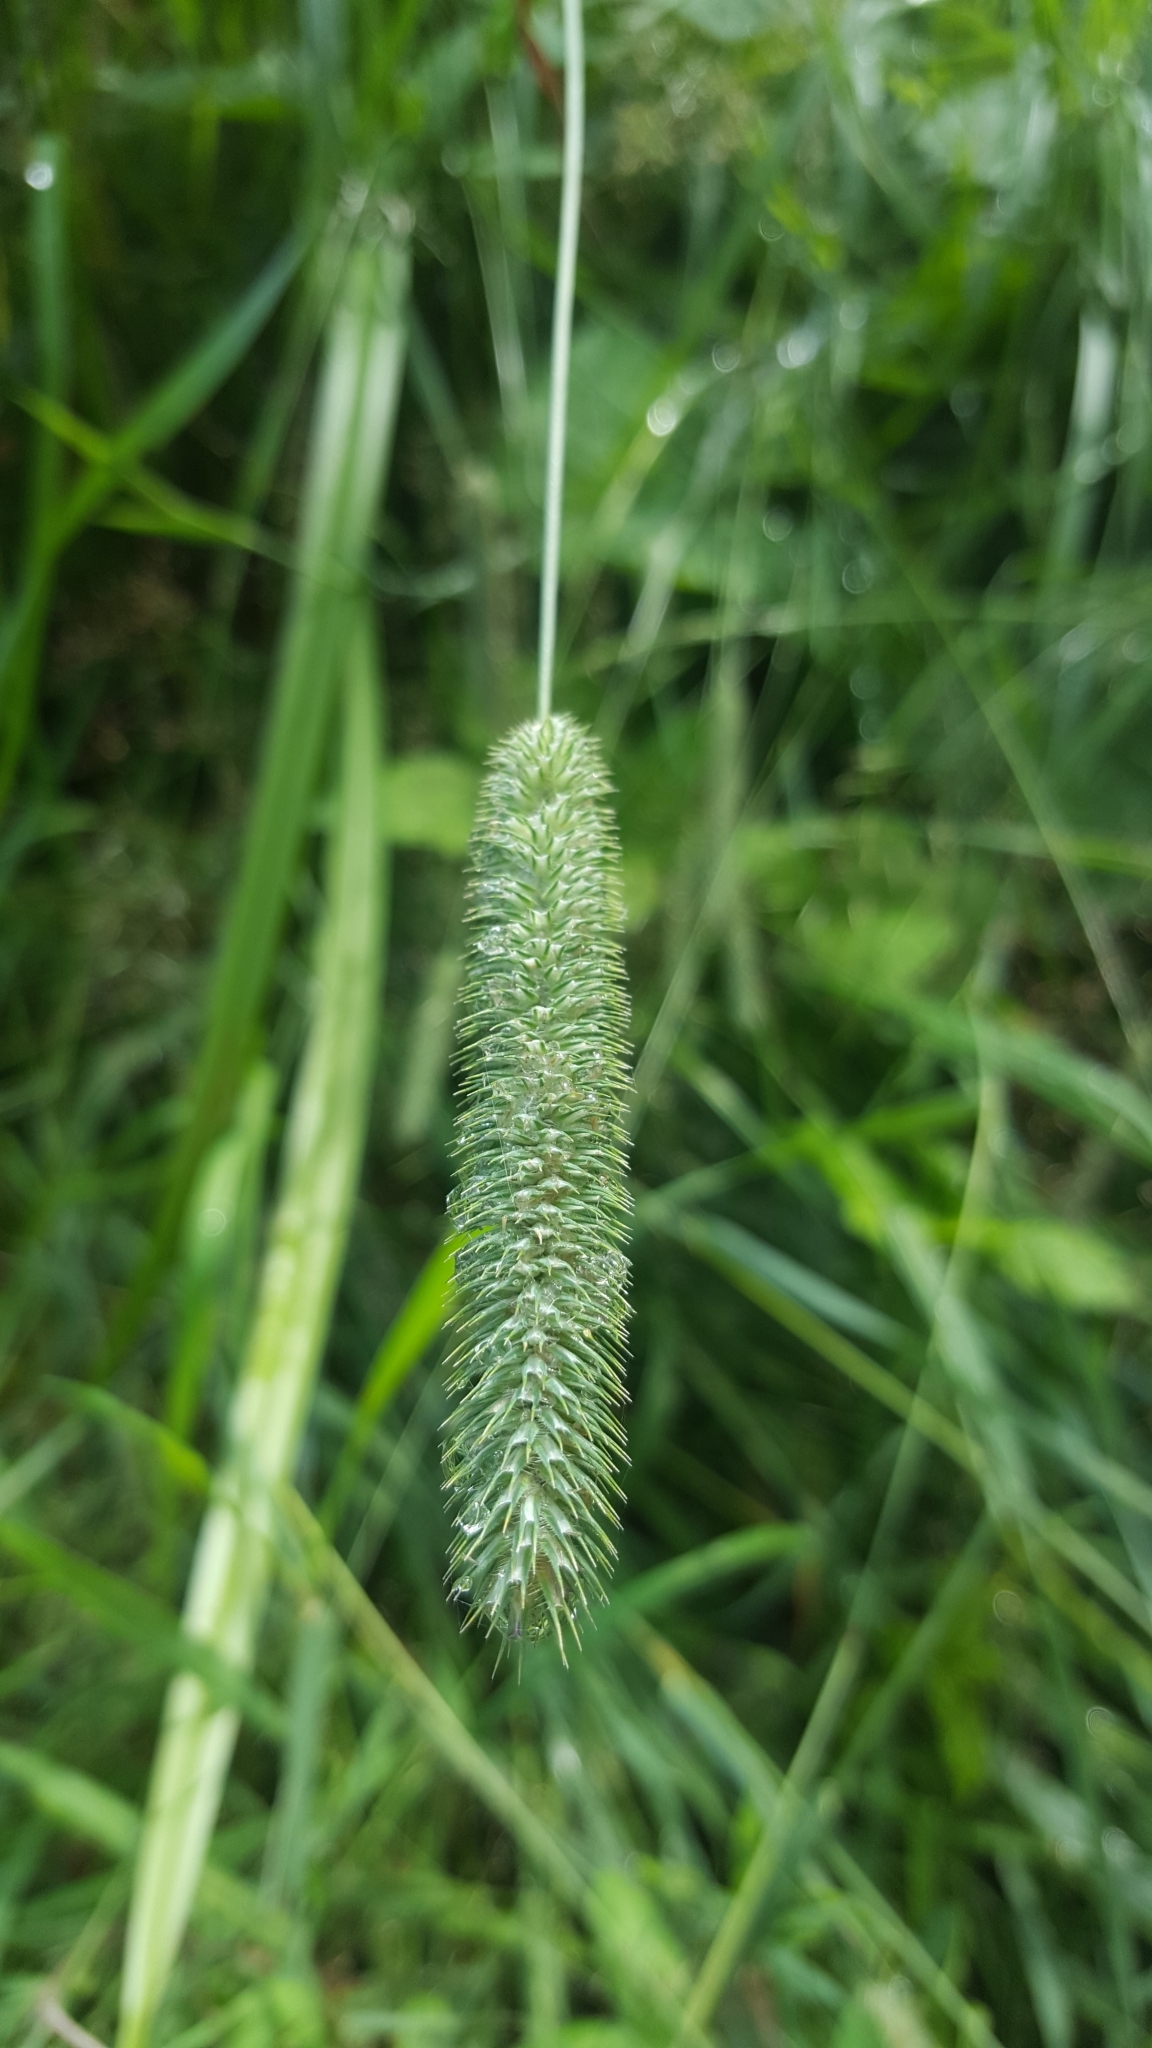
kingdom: Plantae
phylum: Tracheophyta
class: Liliopsida
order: Poales
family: Poaceae
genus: Phleum
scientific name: Phleum pratense
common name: Timothy grass
